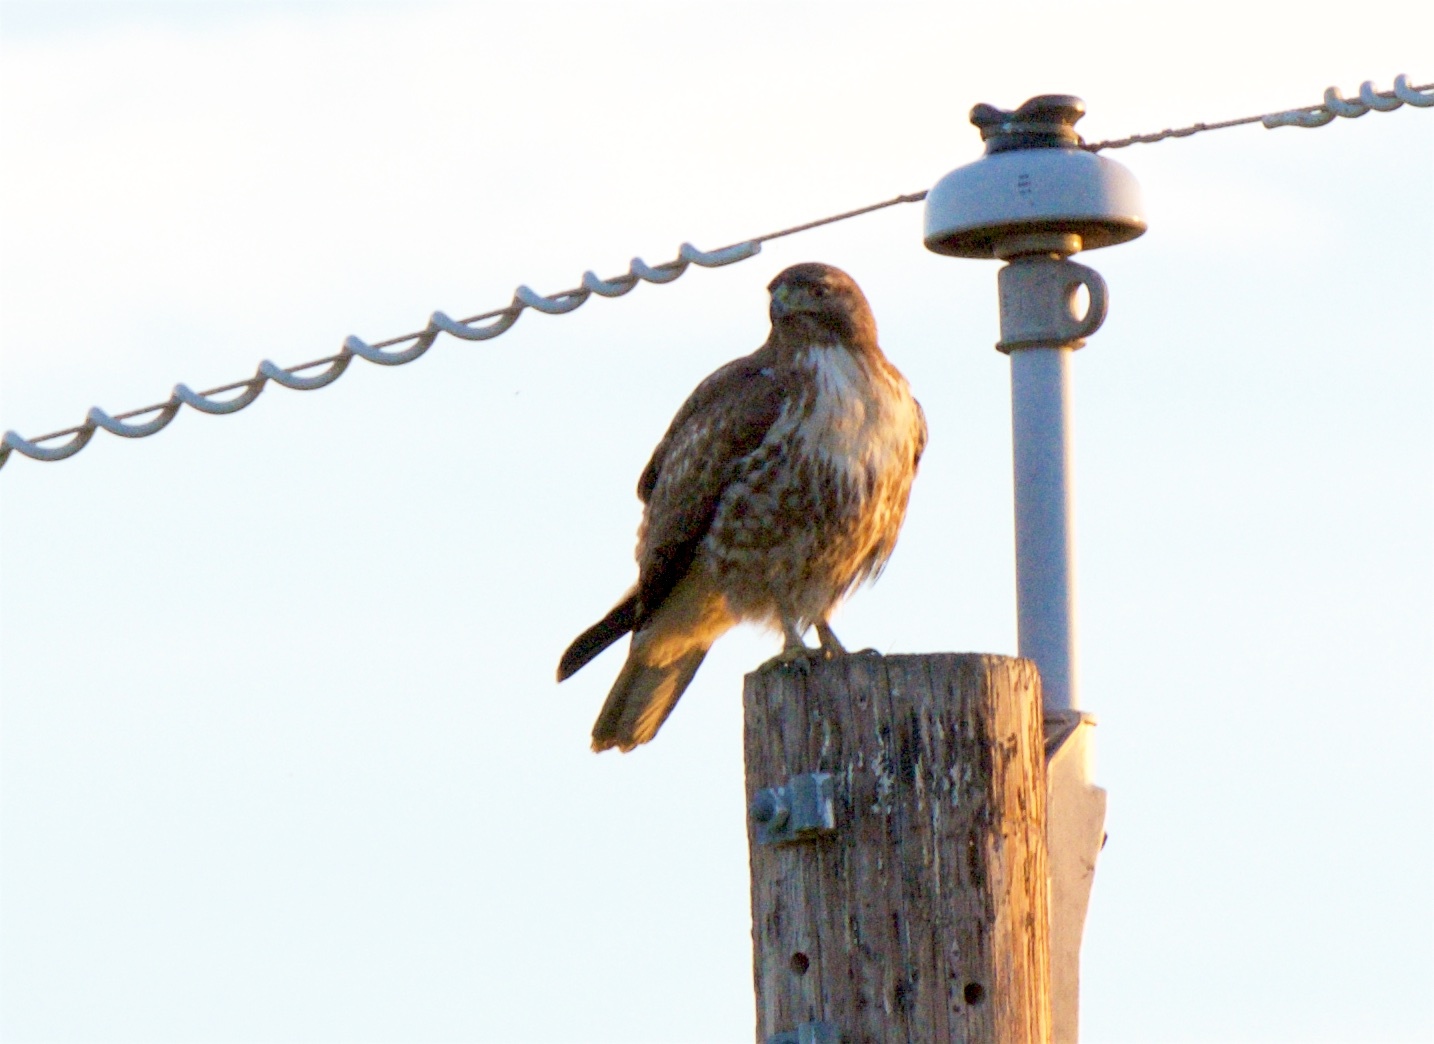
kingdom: Animalia
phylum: Chordata
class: Aves
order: Accipitriformes
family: Accipitridae
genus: Buteo
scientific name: Buteo jamaicensis
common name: Red-tailed hawk
